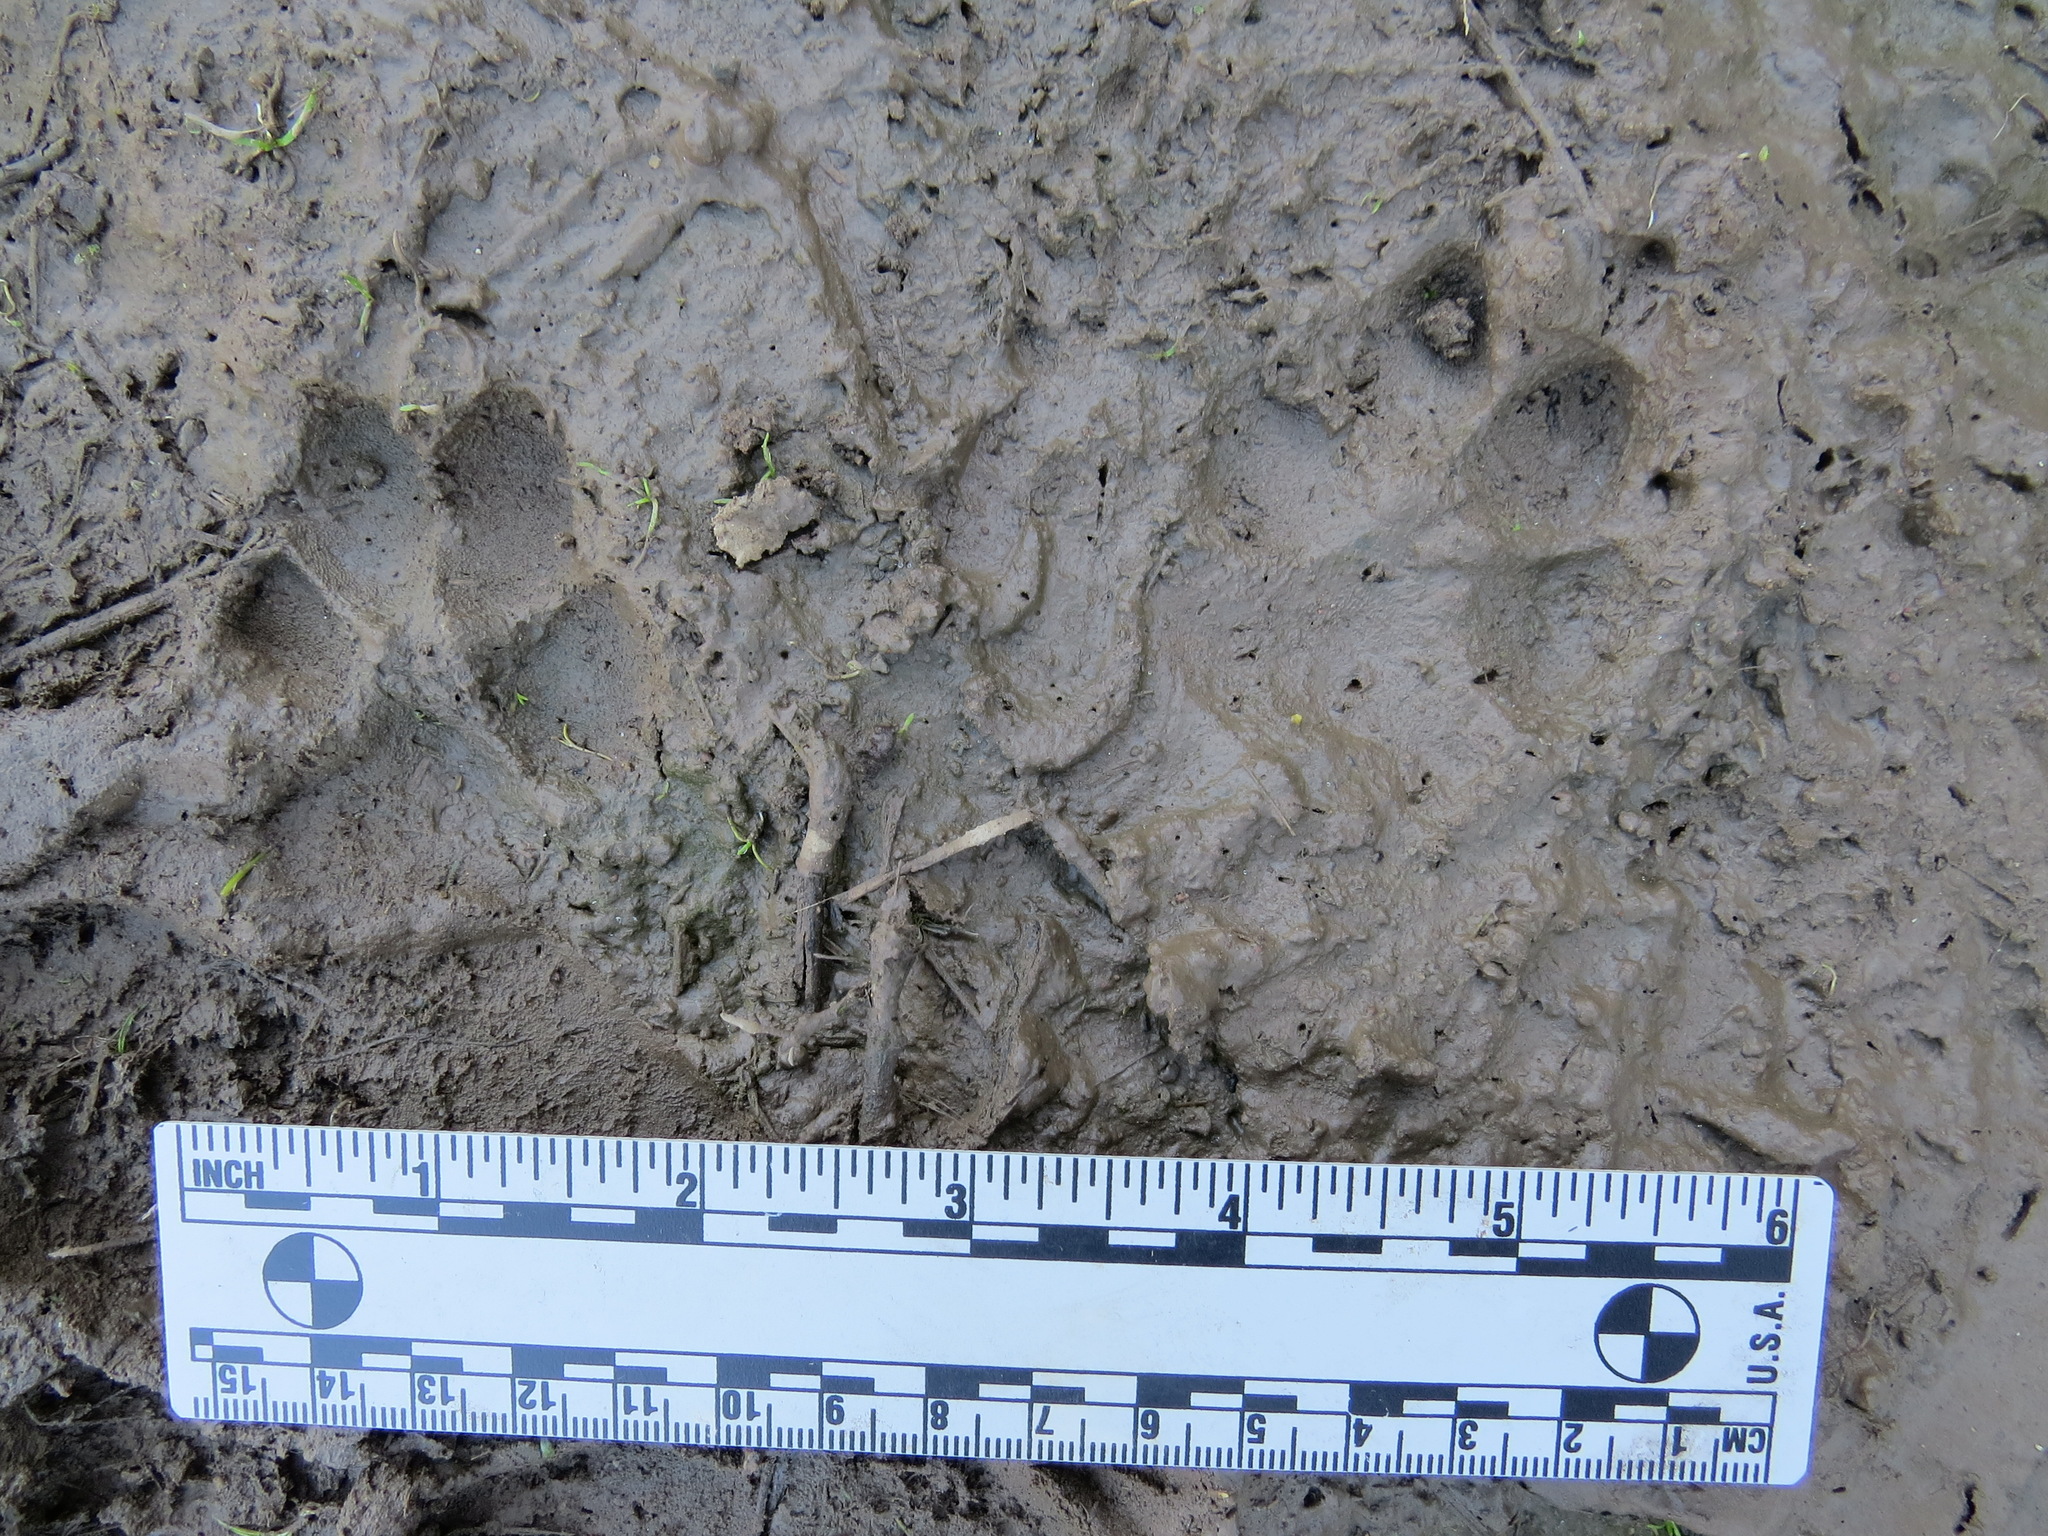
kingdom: Animalia
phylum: Chordata
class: Mammalia
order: Carnivora
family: Canidae
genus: Canis
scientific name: Canis latrans
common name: Coyote
